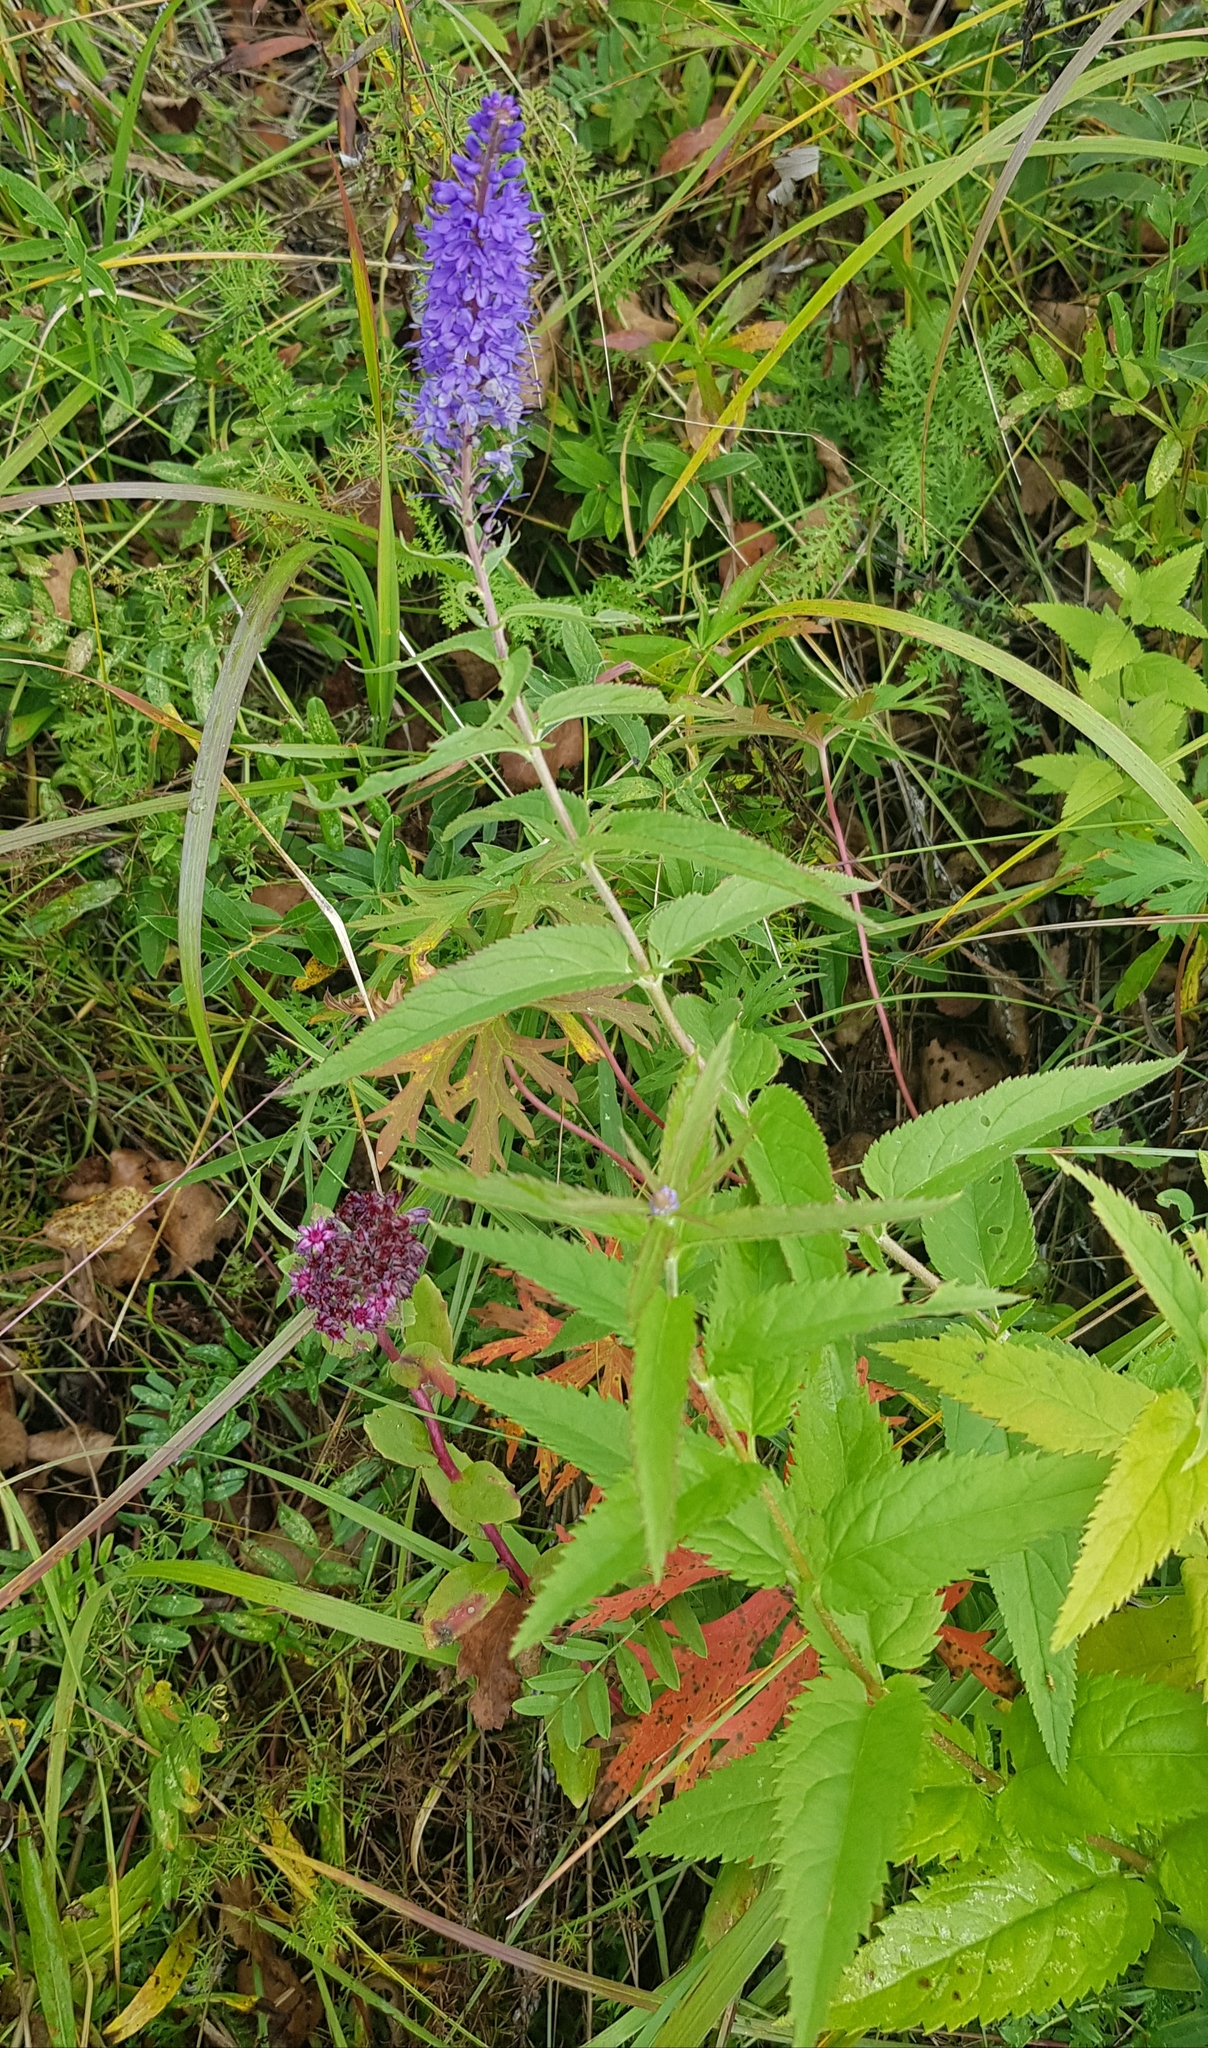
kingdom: Plantae
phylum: Tracheophyta
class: Magnoliopsida
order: Lamiales
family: Plantaginaceae
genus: Veronica
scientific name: Veronica longifolia
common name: Garden speedwell
